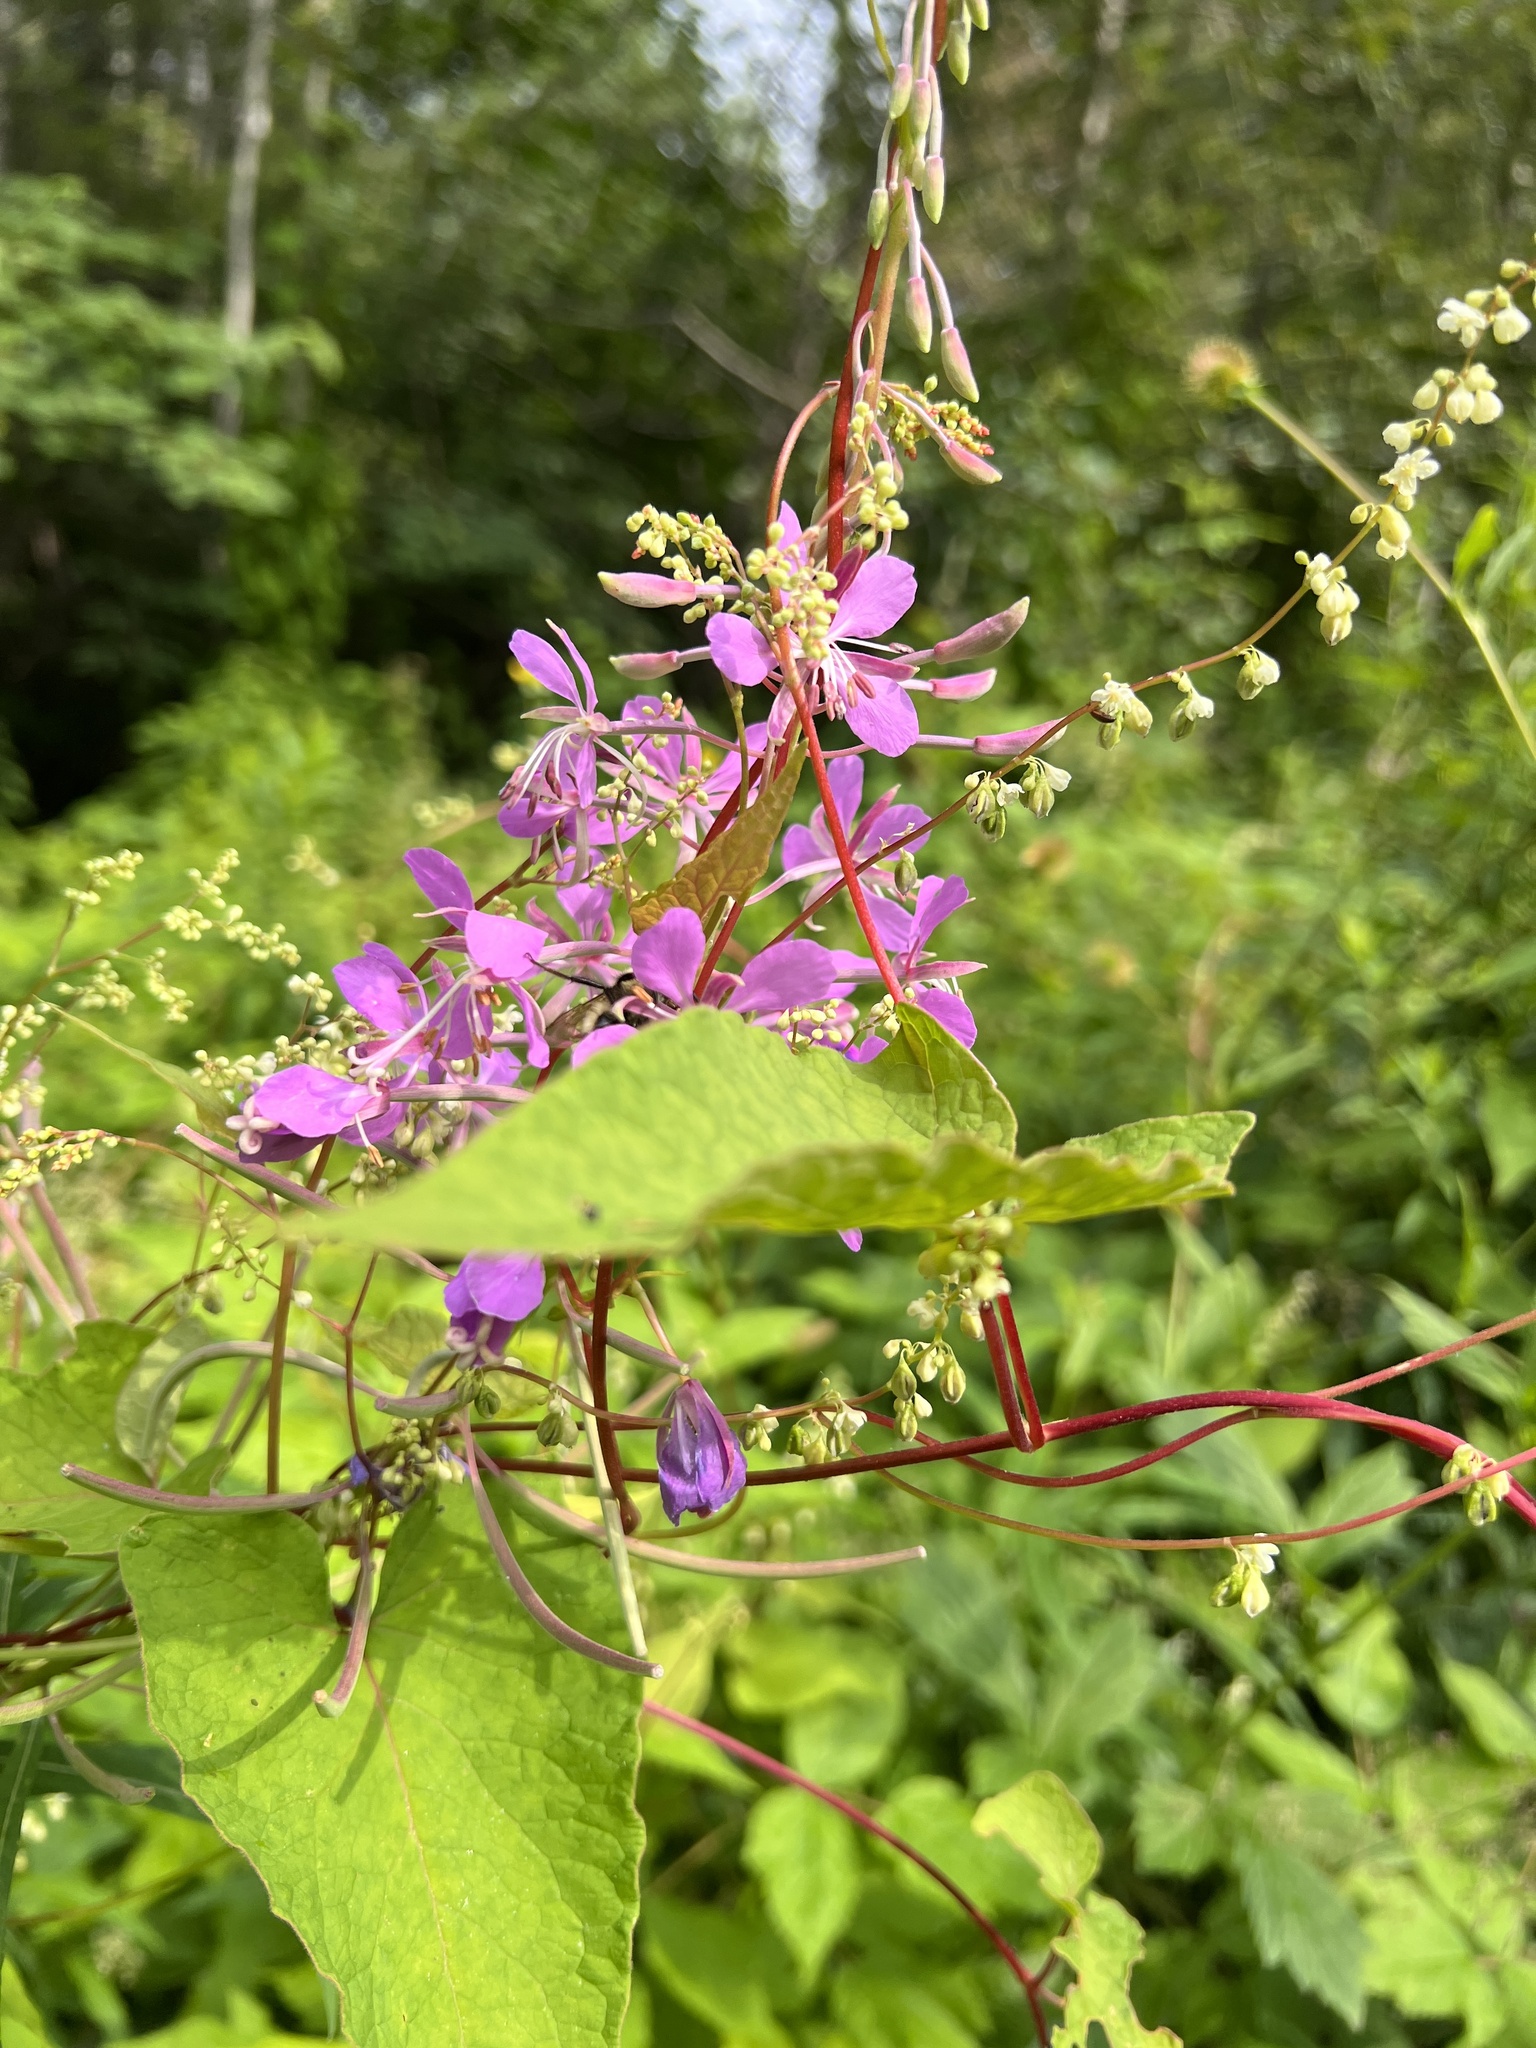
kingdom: Plantae
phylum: Tracheophyta
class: Magnoliopsida
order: Myrtales
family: Onagraceae
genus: Chamaenerion
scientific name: Chamaenerion angustifolium
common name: Fireweed
